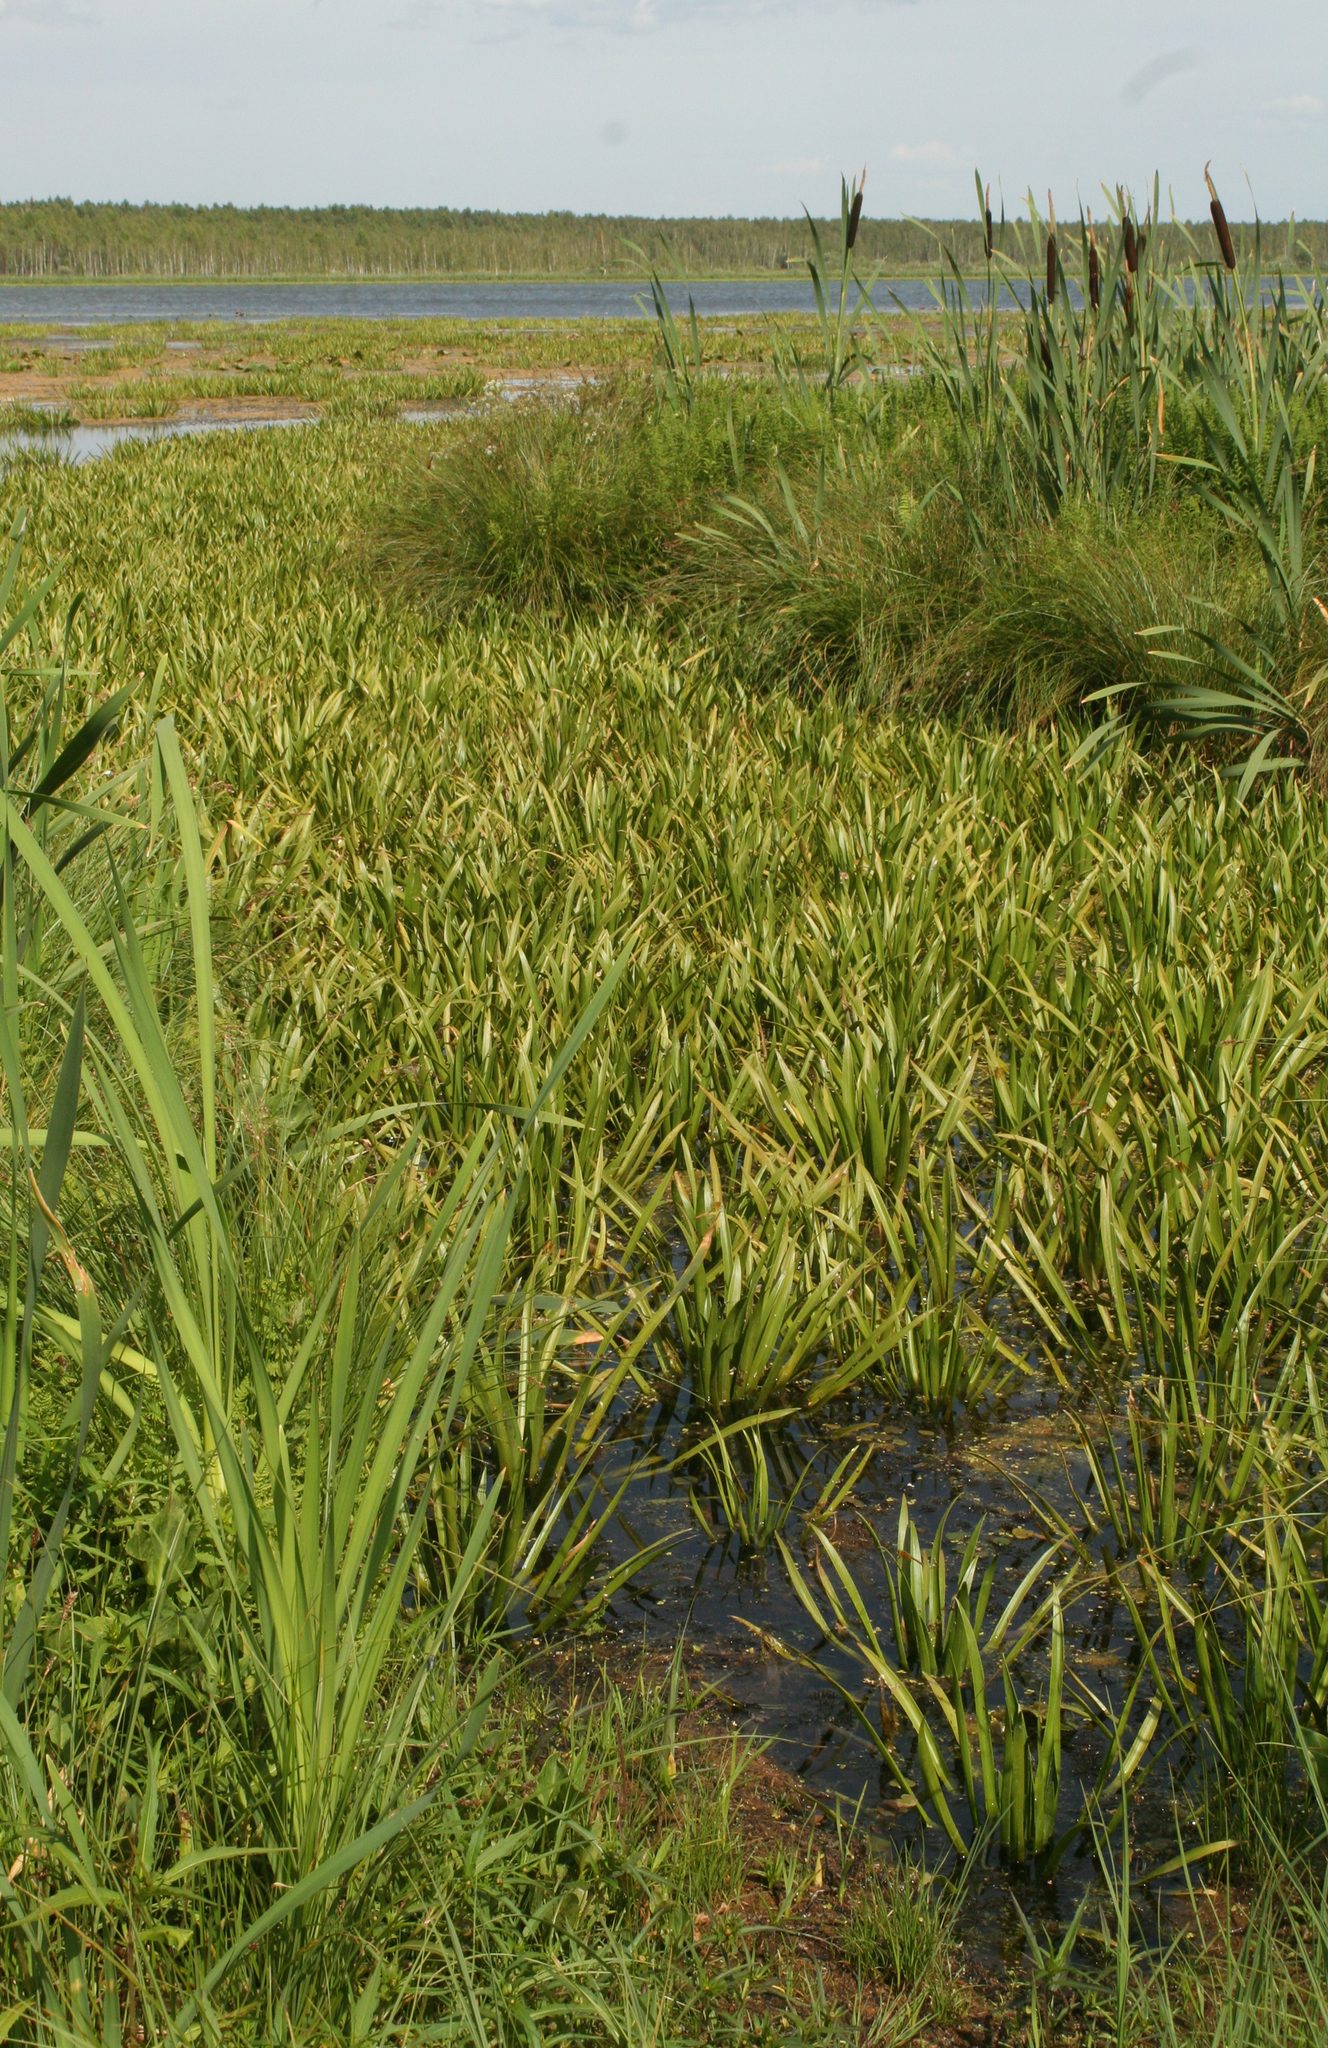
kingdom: Plantae
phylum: Tracheophyta
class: Liliopsida
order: Alismatales
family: Hydrocharitaceae
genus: Stratiotes
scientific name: Stratiotes aloides
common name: Water-soldier
